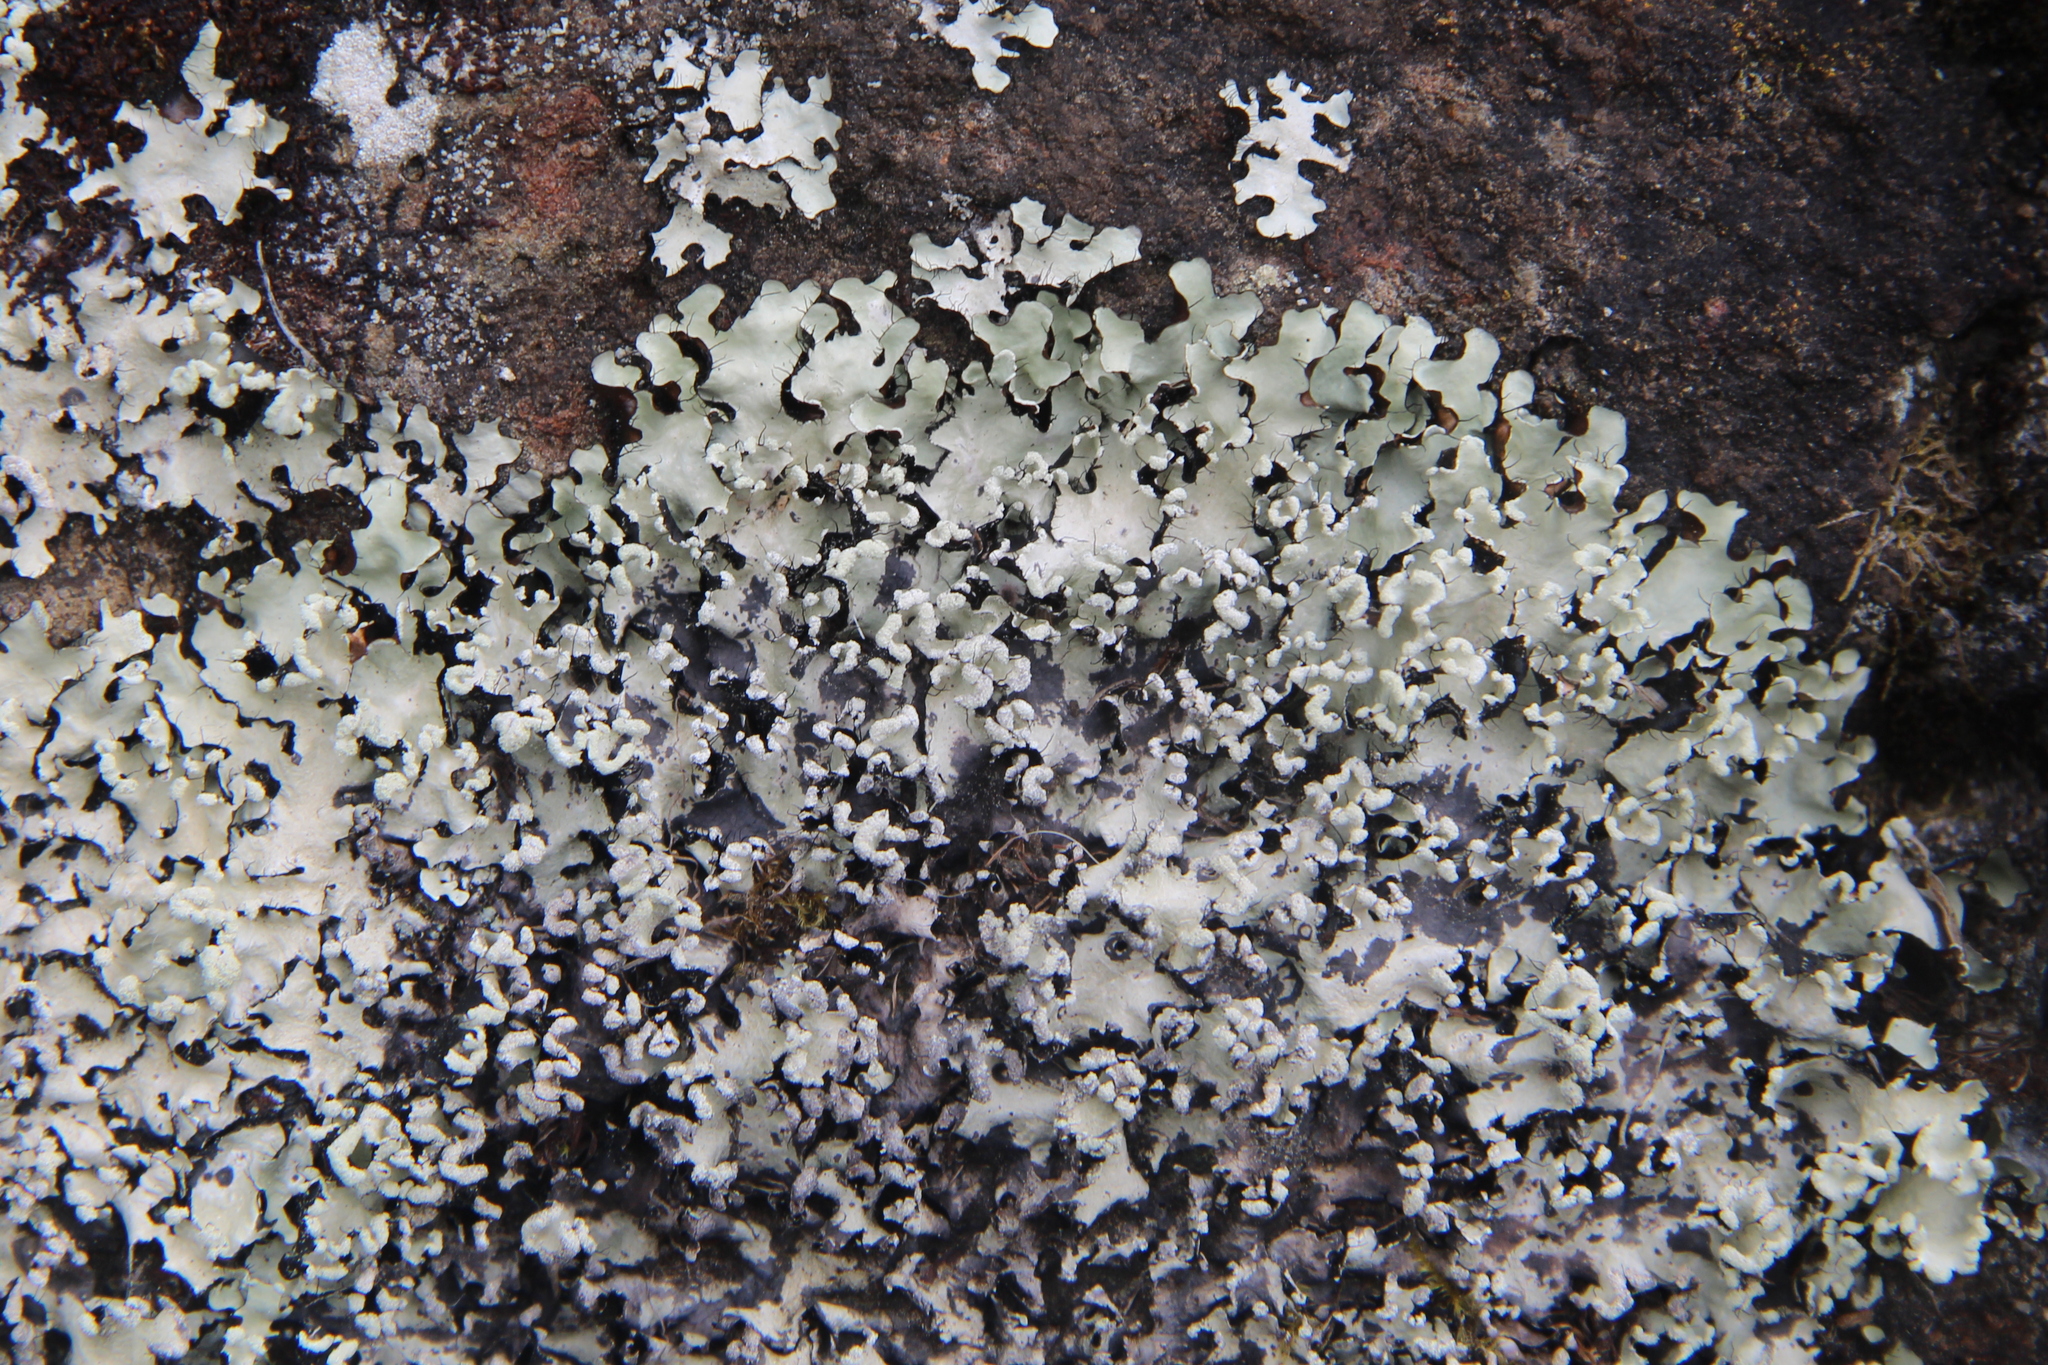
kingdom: Fungi
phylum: Ascomycota
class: Lecanoromycetes
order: Lecanorales
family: Parmeliaceae
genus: Parmotrema
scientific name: Parmotrema reticulatum
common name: Black sheet lichen
